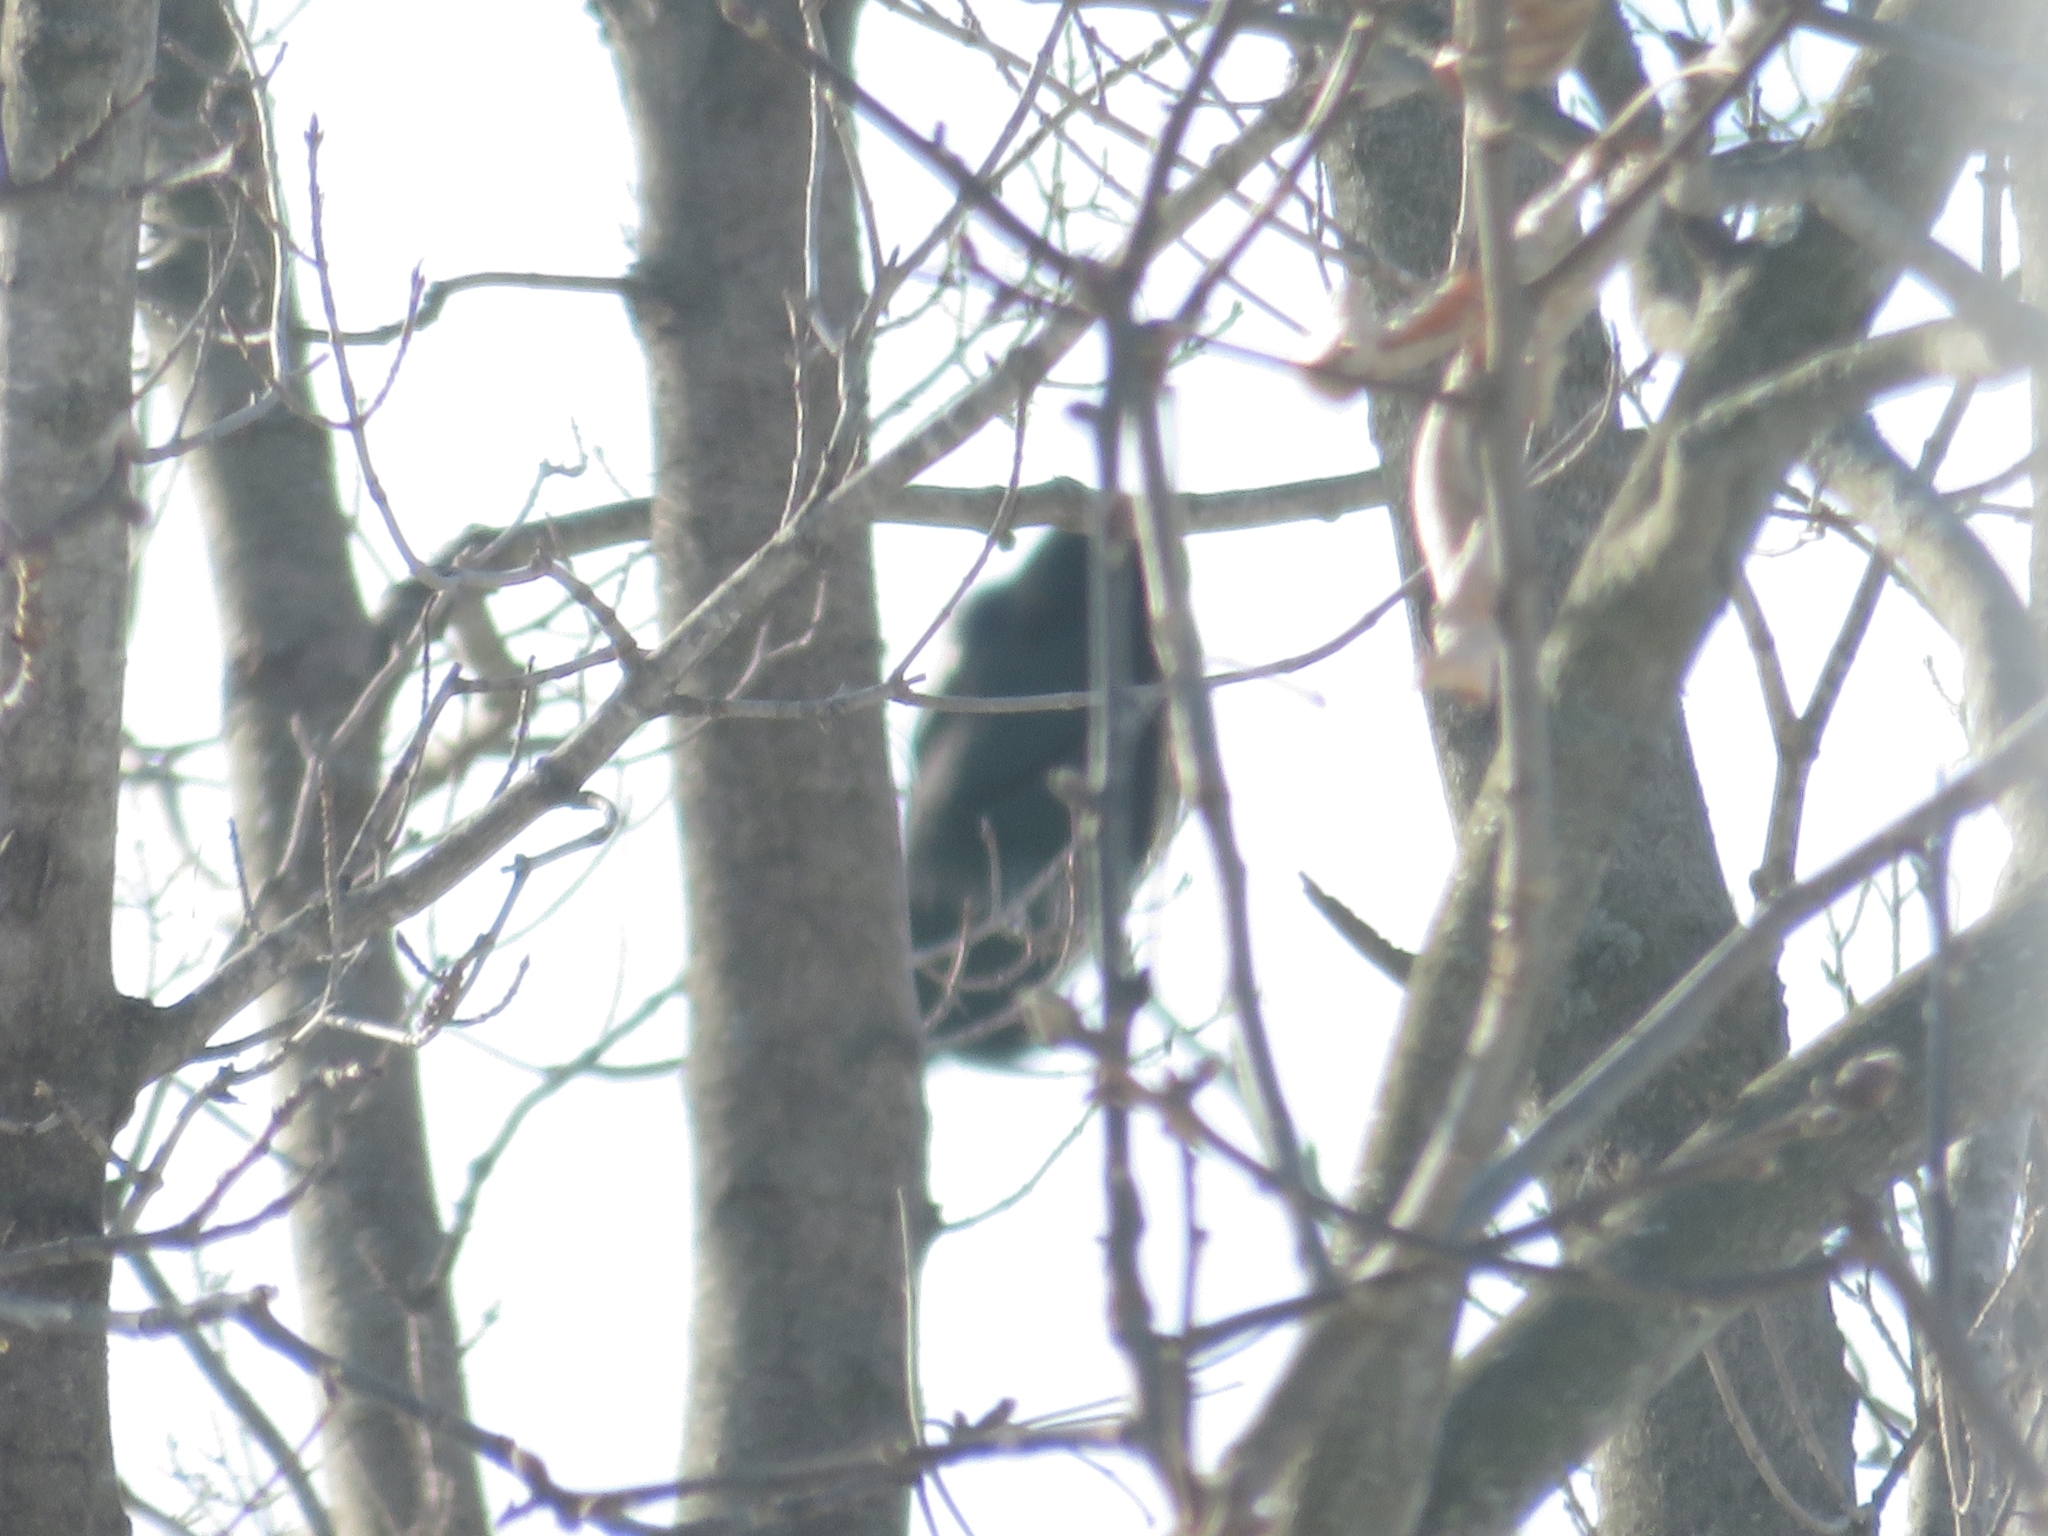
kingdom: Animalia
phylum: Chordata
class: Aves
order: Passeriformes
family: Corvidae
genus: Corvus
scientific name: Corvus brachyrhynchos
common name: American crow
